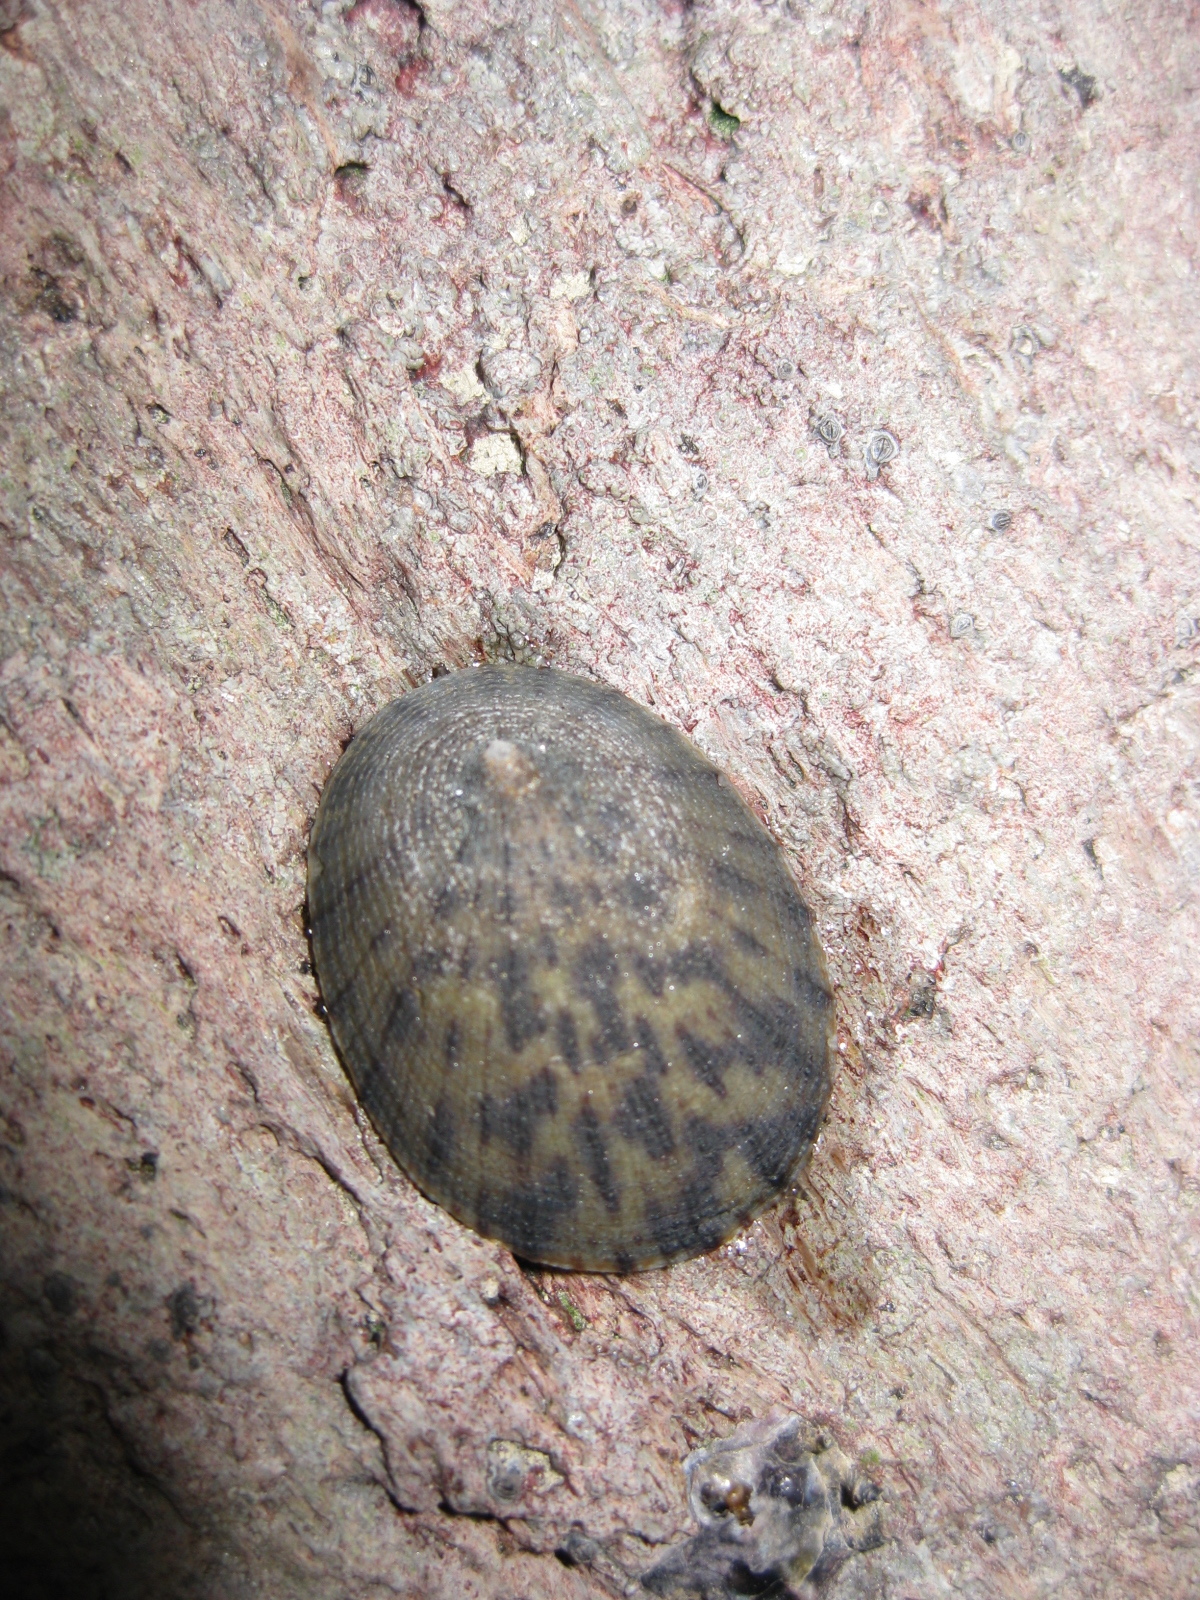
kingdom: Animalia
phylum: Mollusca
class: Gastropoda
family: Nacellidae
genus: Cellana
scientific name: Cellana radians
